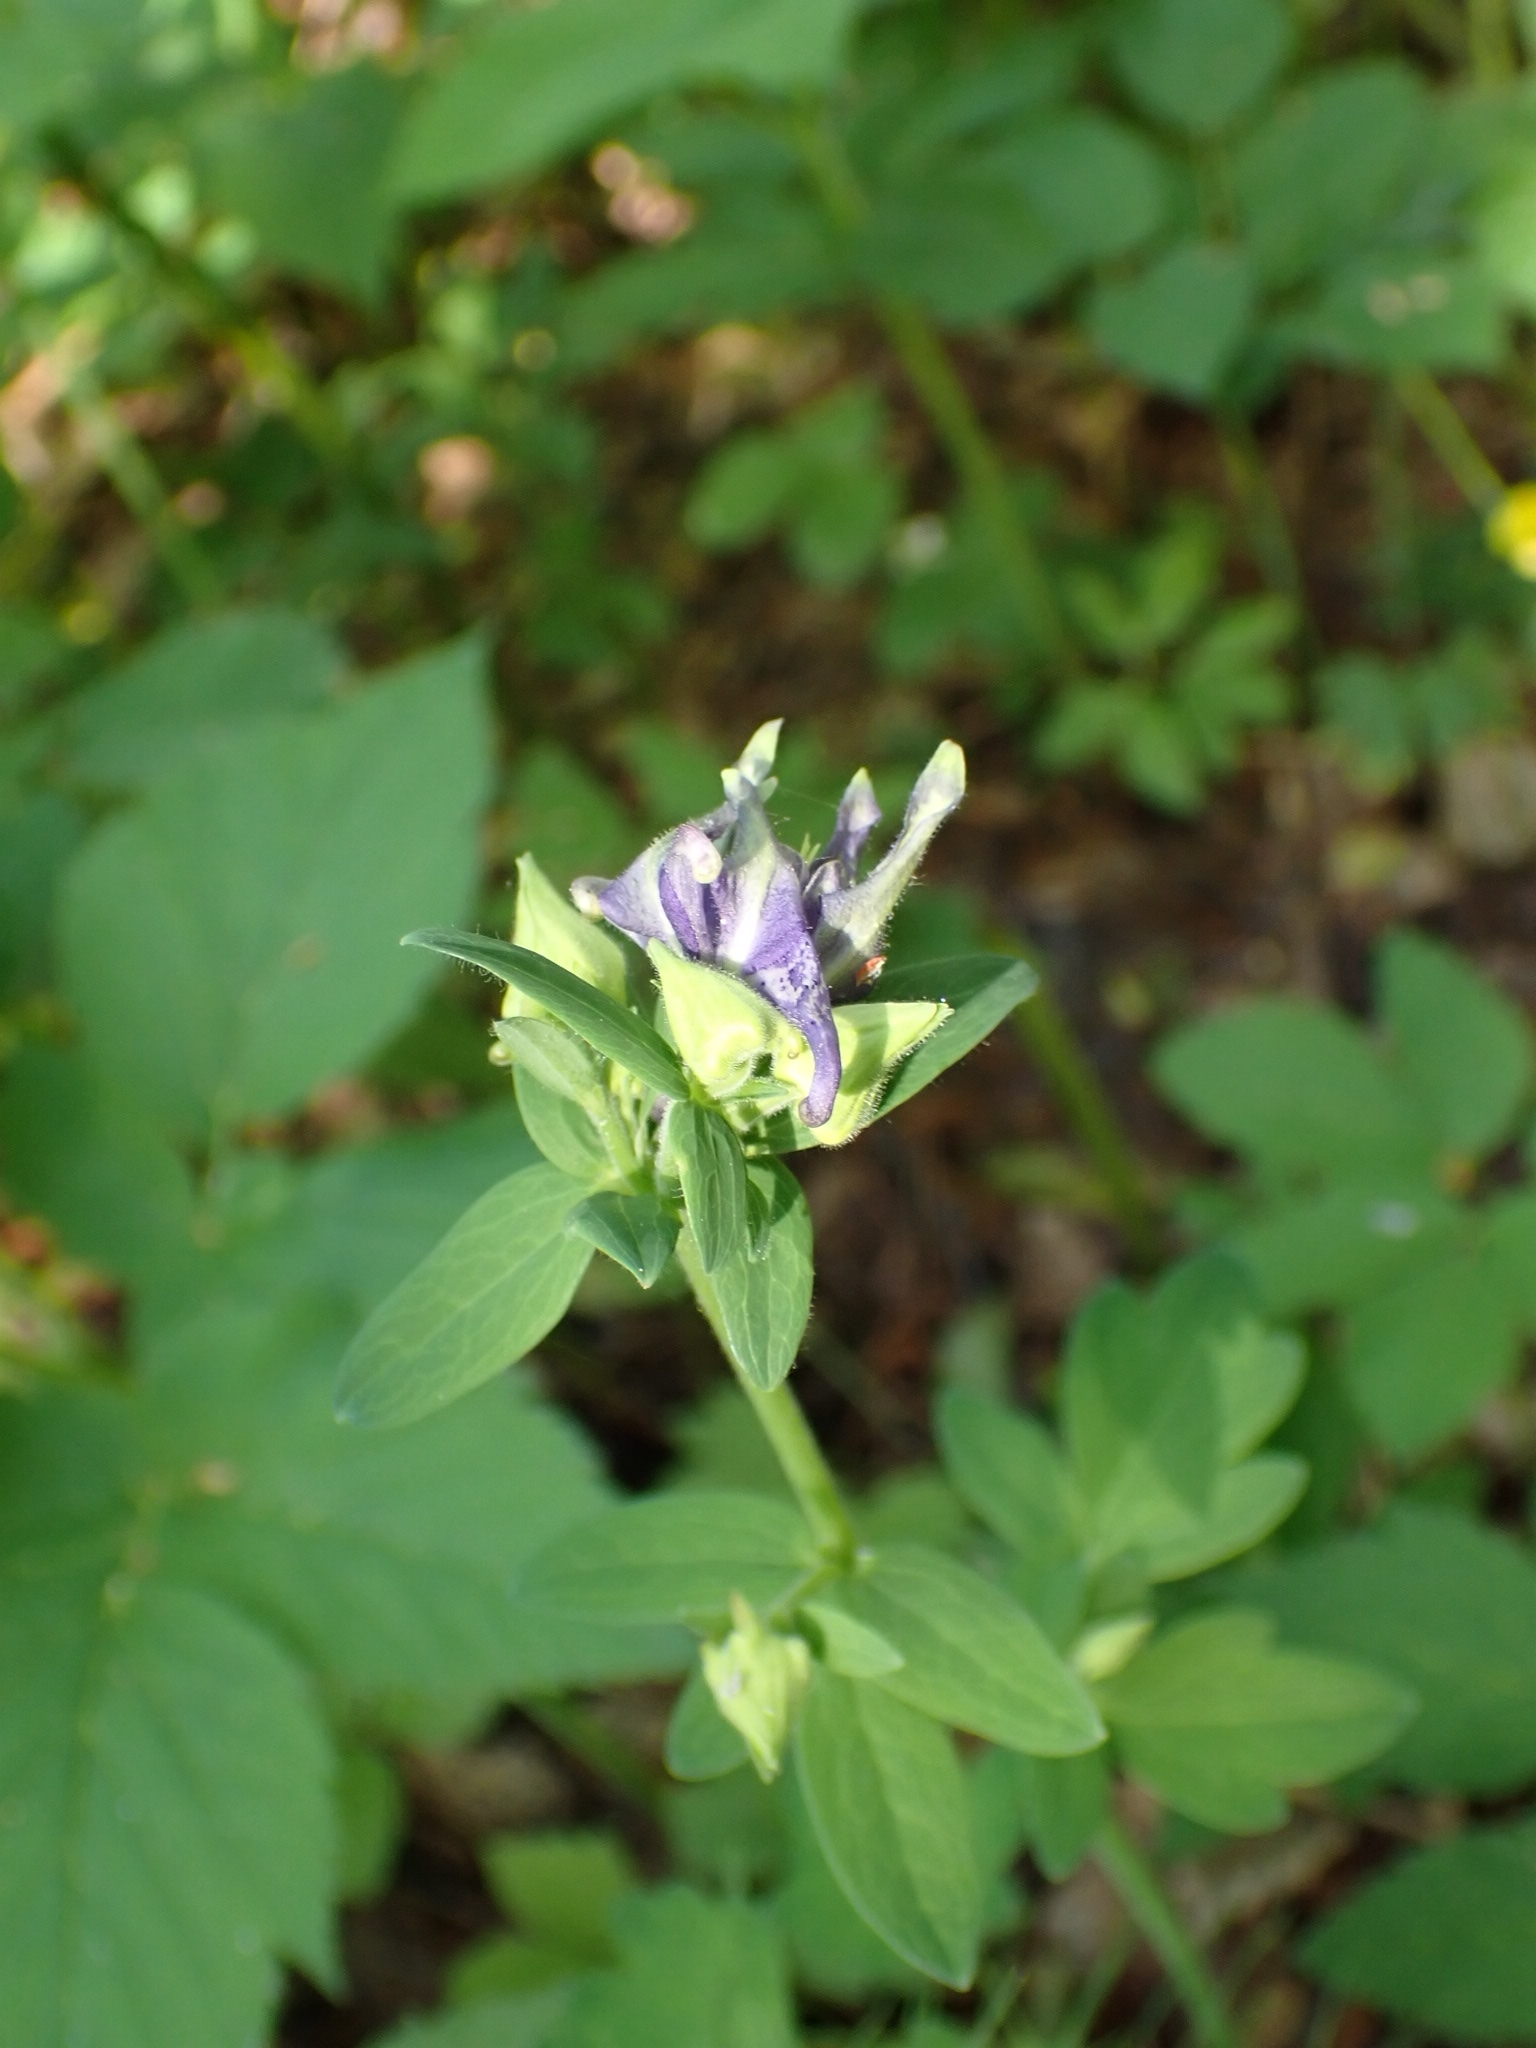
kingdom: Plantae
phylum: Tracheophyta
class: Magnoliopsida
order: Ranunculales
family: Ranunculaceae
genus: Aquilegia
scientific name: Aquilegia vulgaris
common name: Columbine
